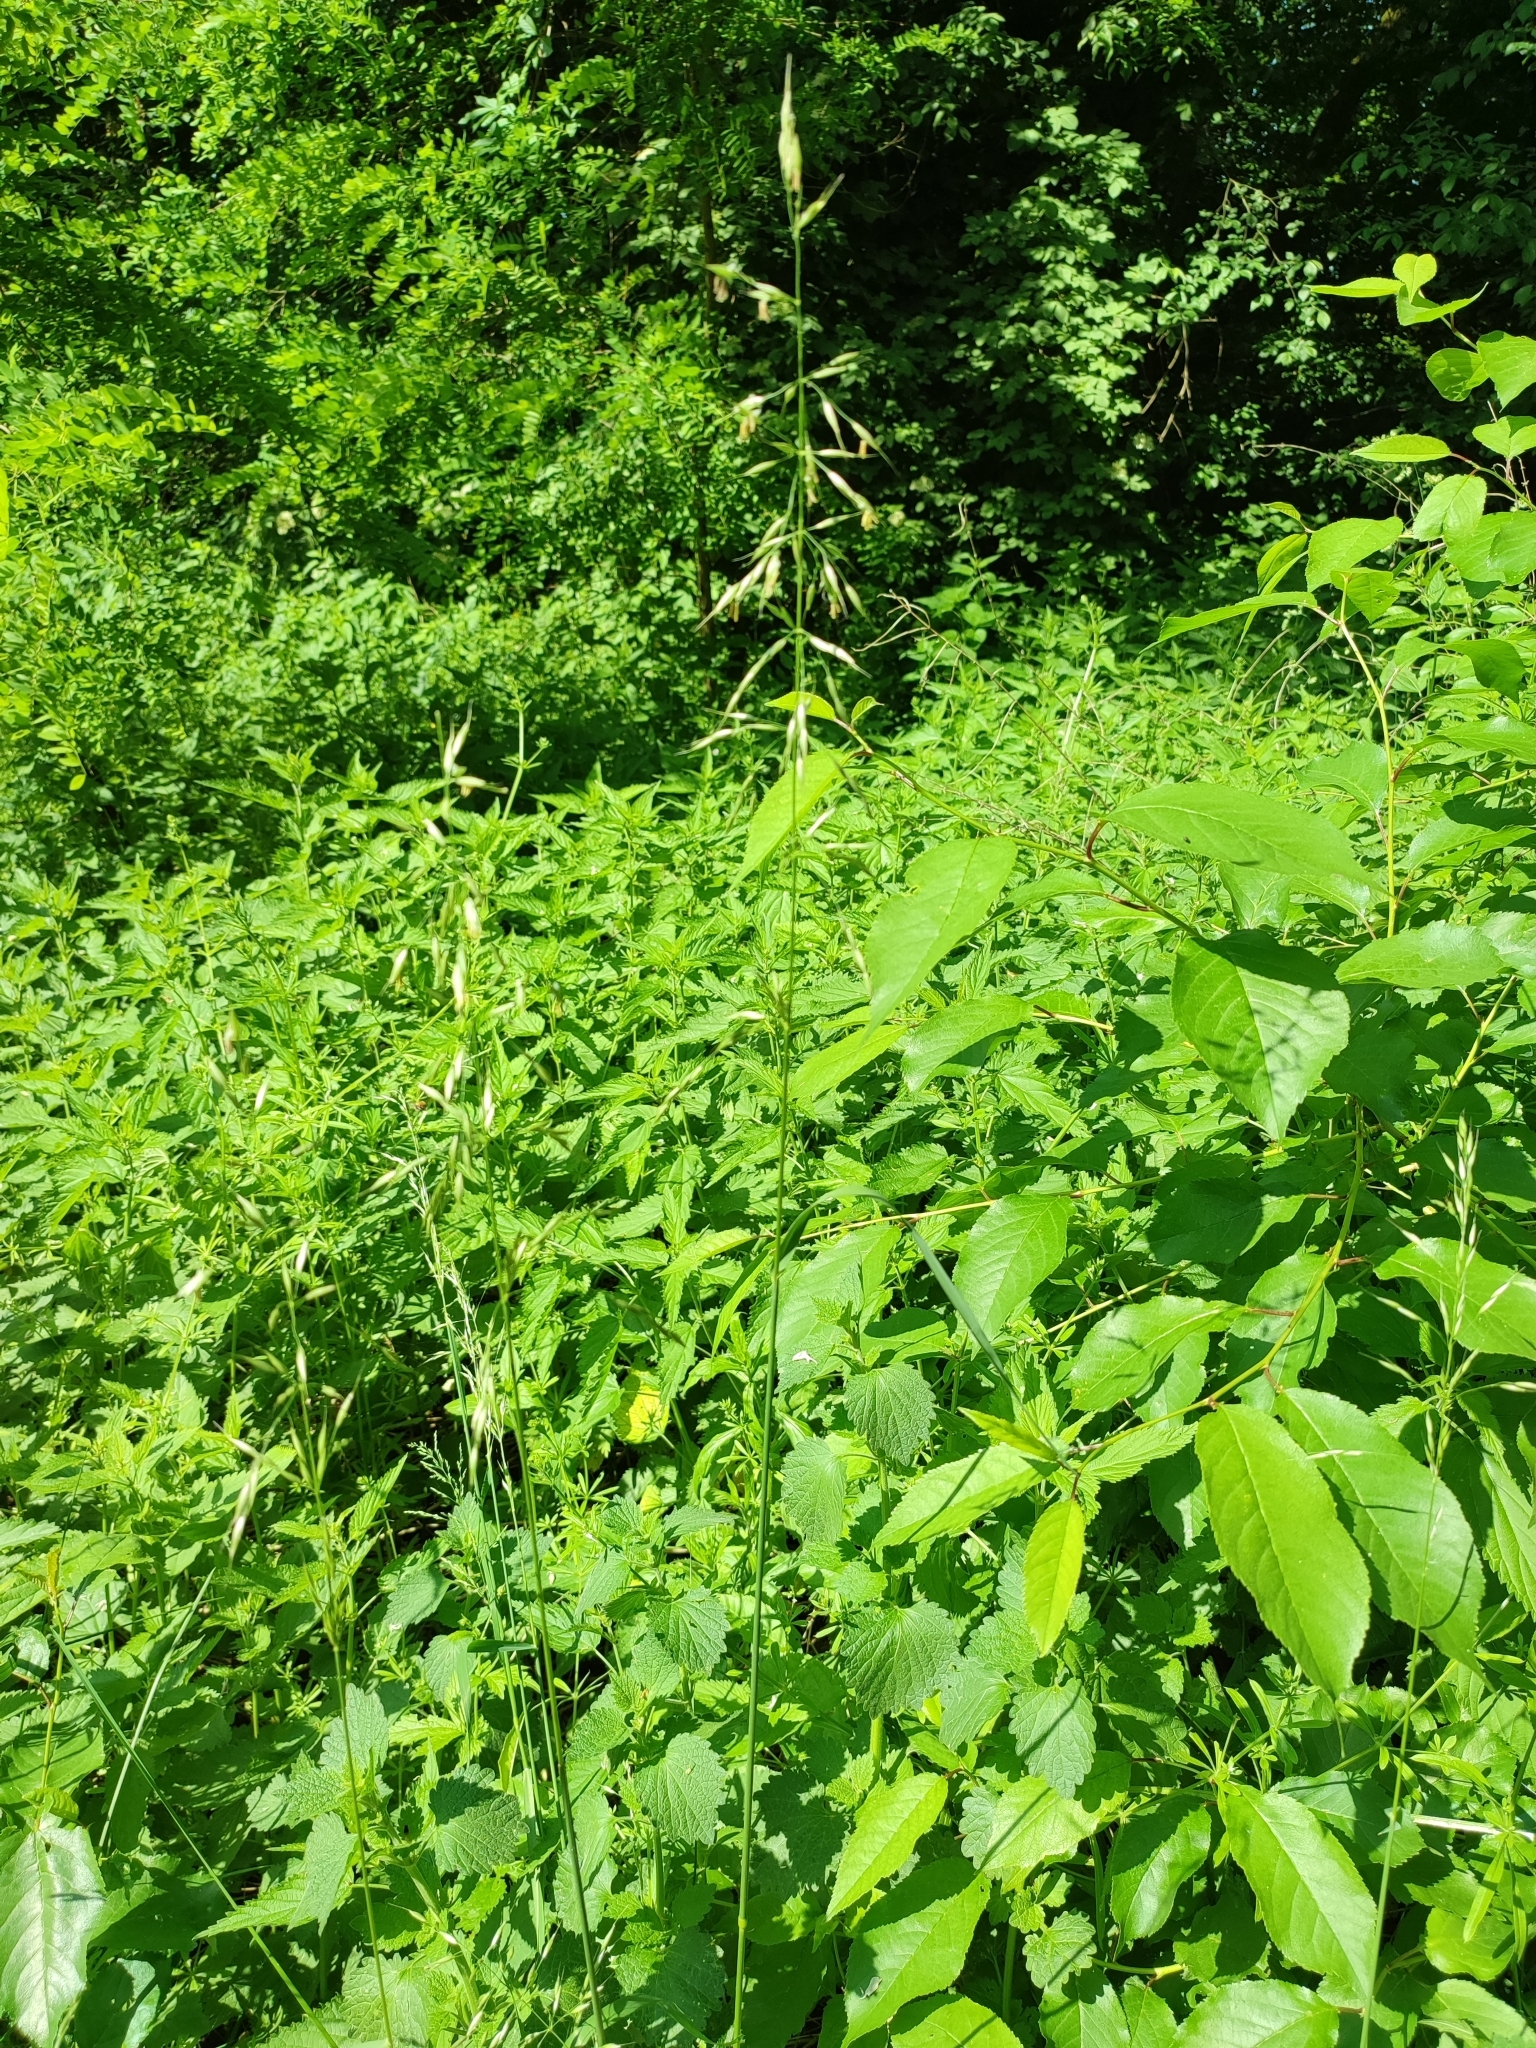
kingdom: Plantae
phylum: Tracheophyta
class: Liliopsida
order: Poales
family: Poaceae
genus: Arrhenatherum
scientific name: Arrhenatherum elatius
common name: Tall oatgrass
